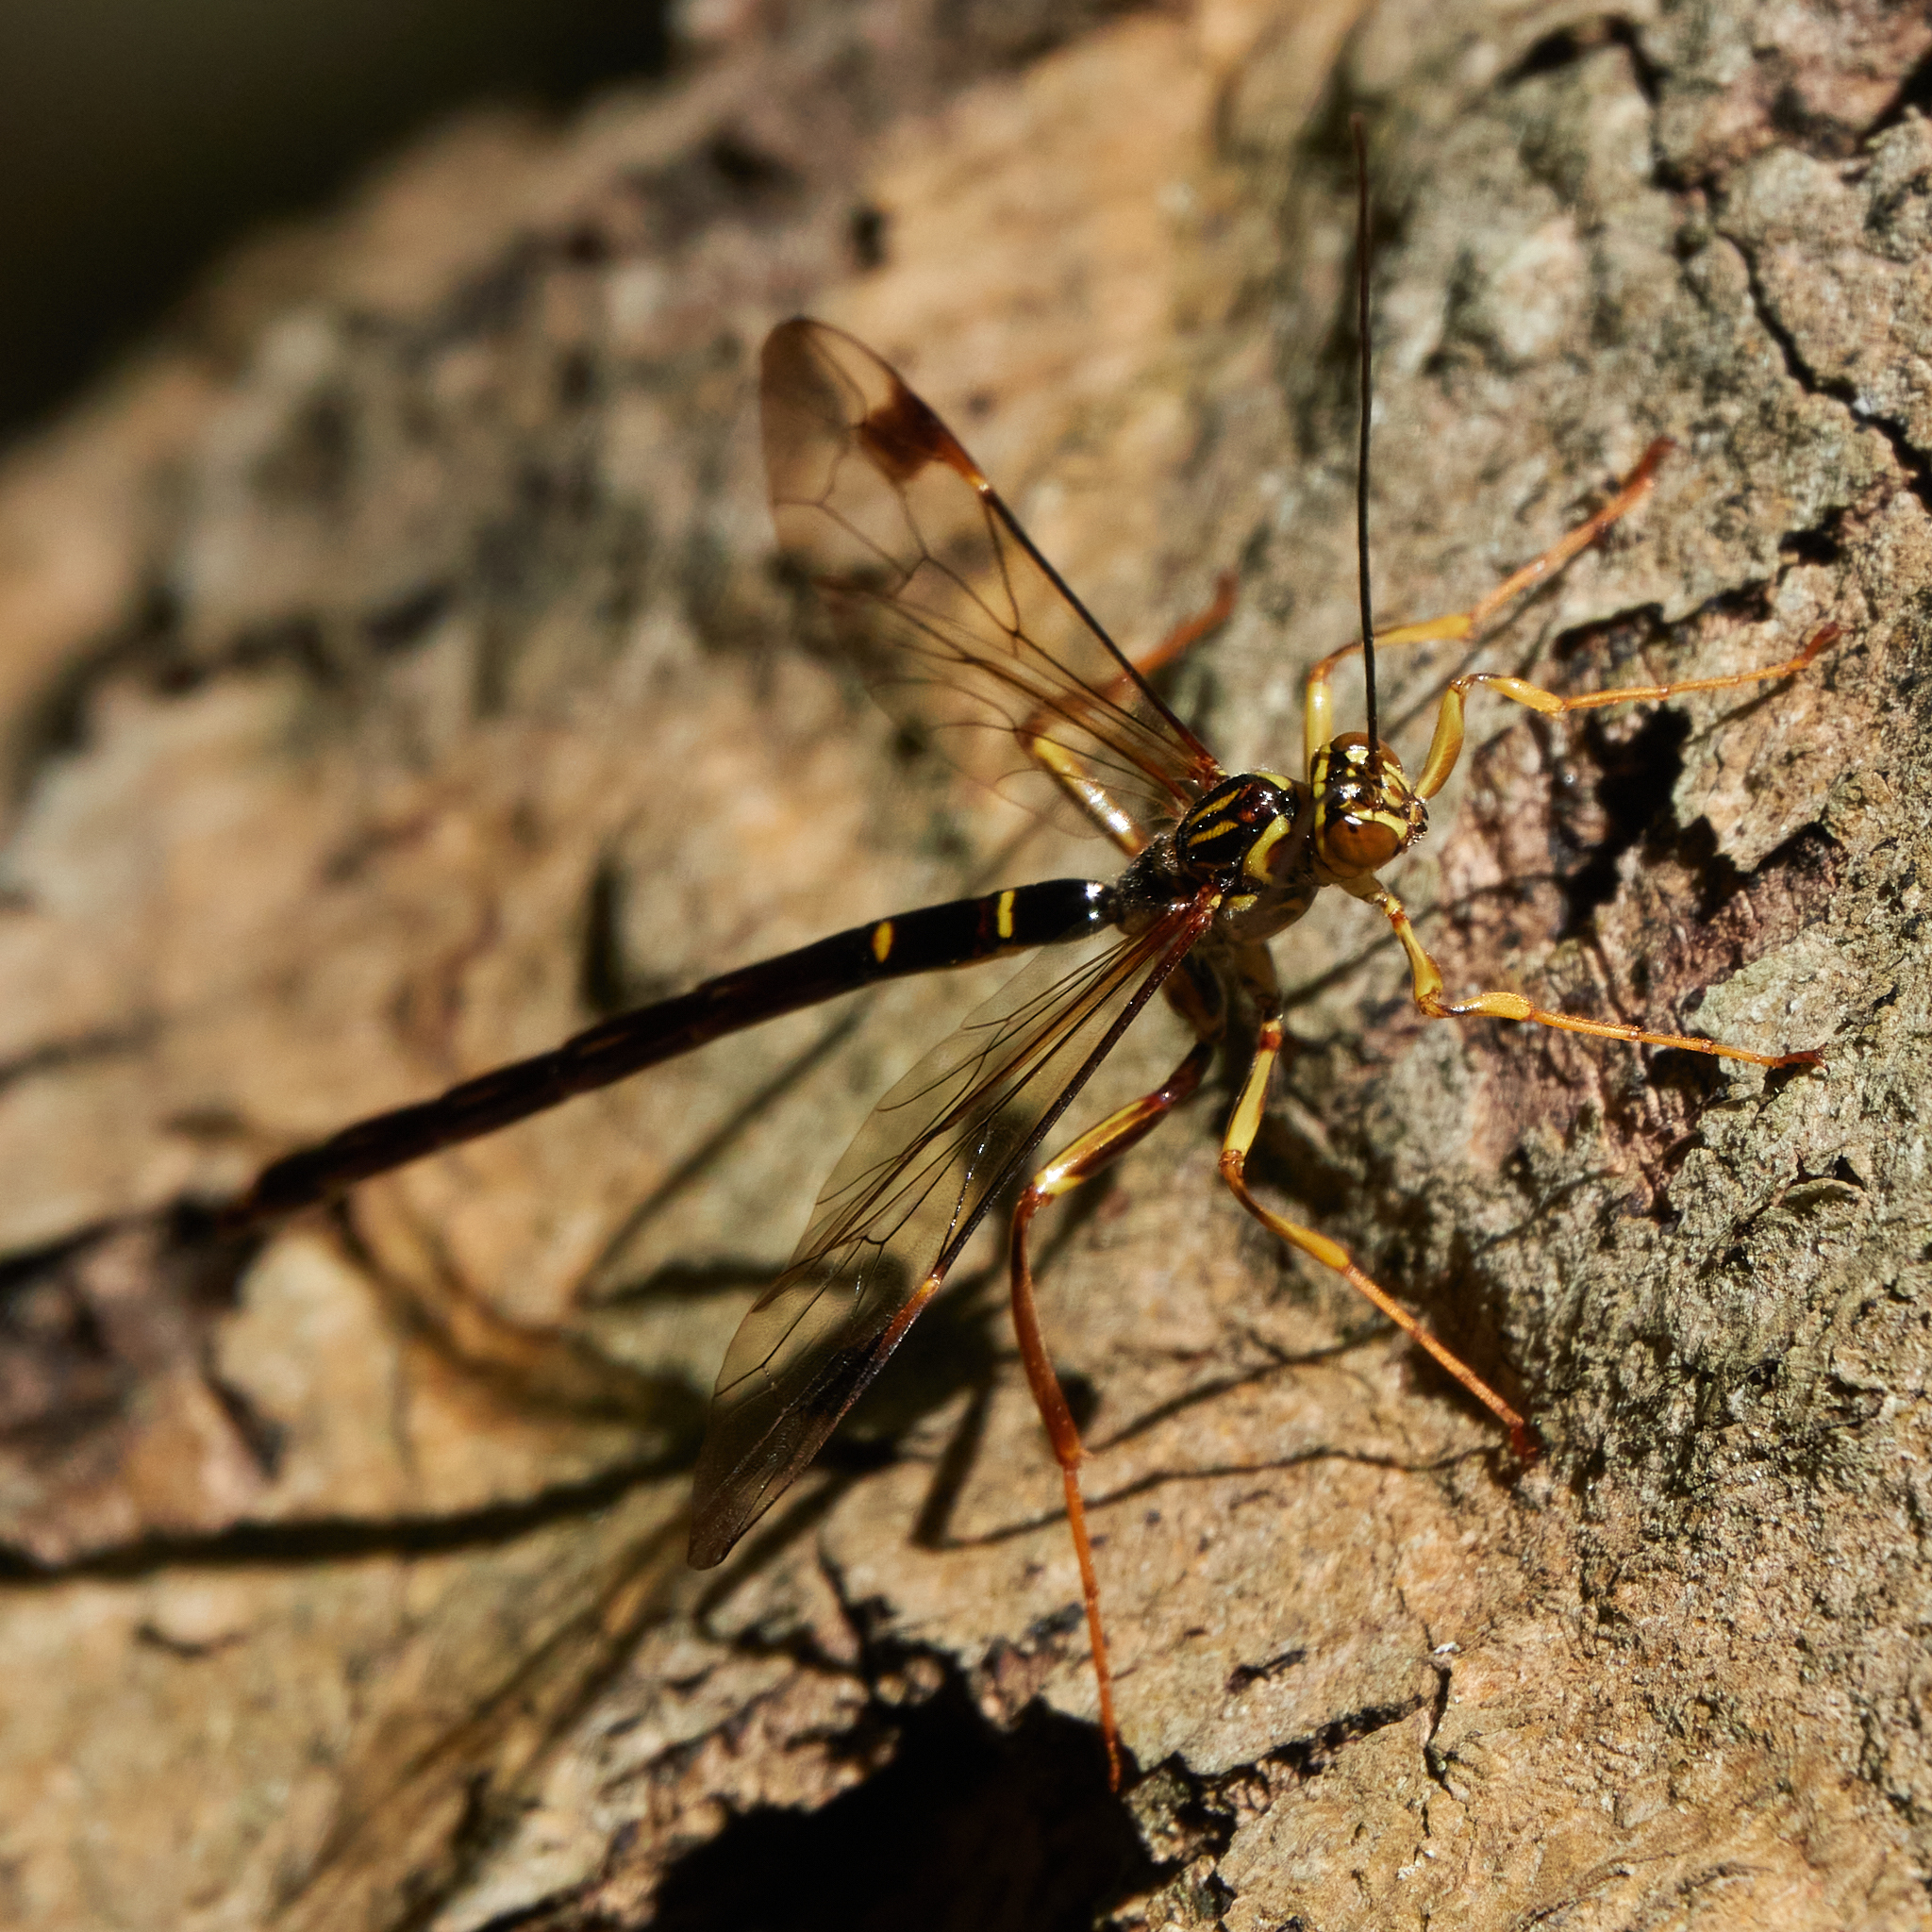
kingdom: Animalia
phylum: Arthropoda
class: Insecta
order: Hymenoptera
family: Ichneumonidae
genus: Megarhyssa
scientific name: Megarhyssa macrura
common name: Long-tailed giant ichneumonid wasp
